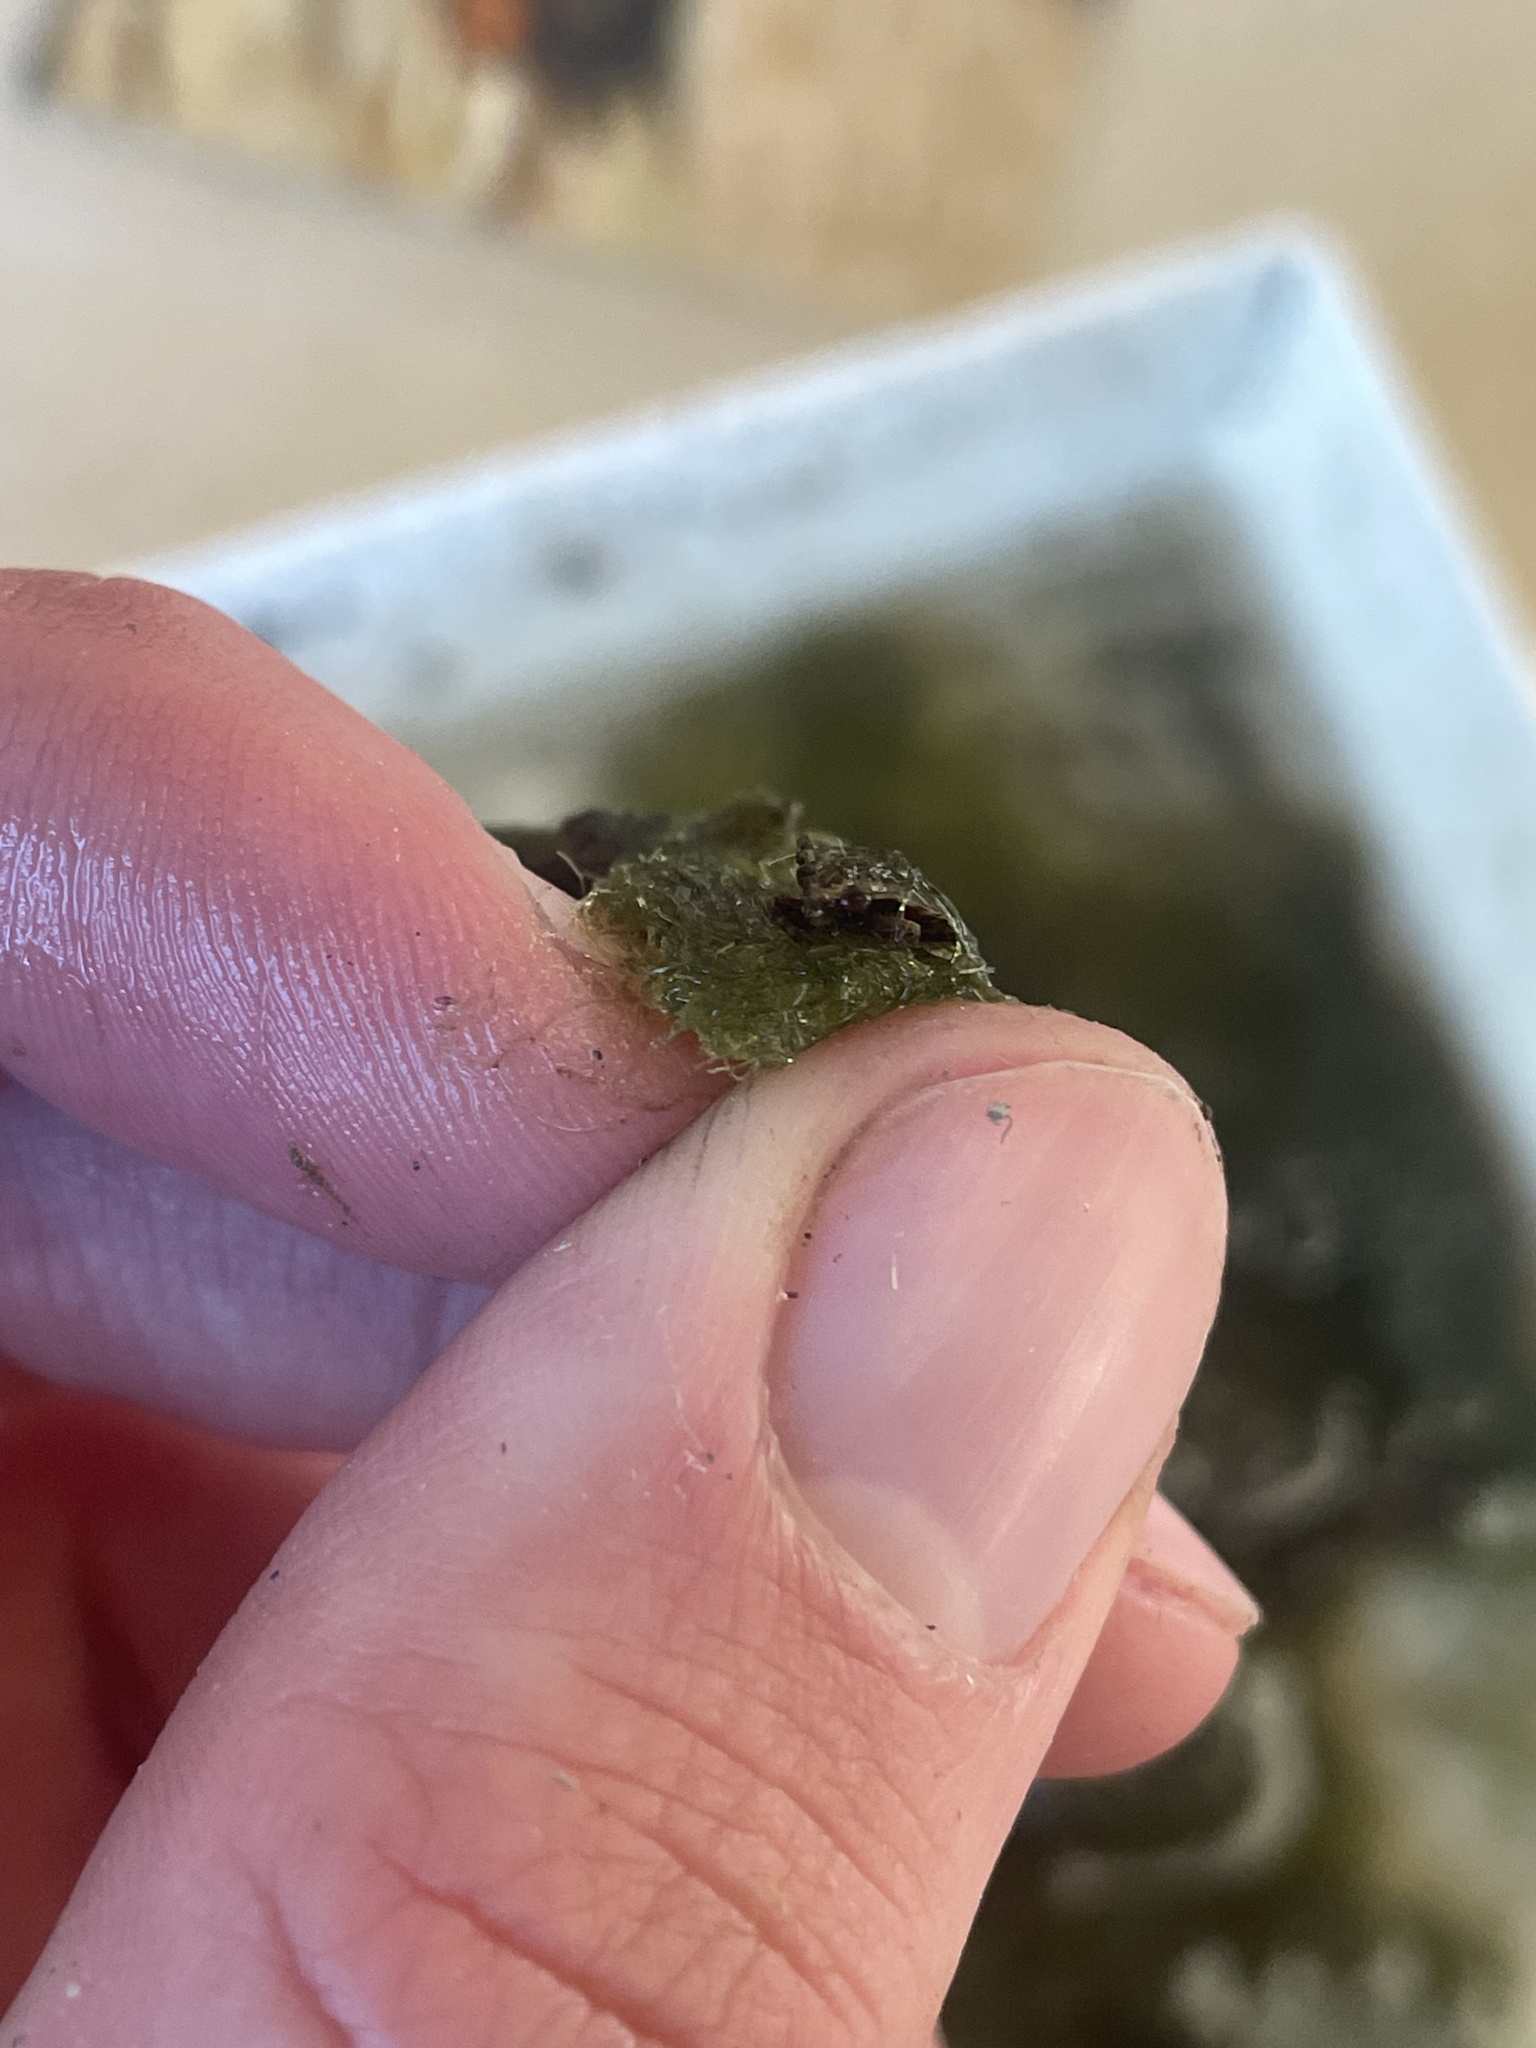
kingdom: Animalia
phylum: Arthropoda
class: Insecta
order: Hemiptera
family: Belostomatidae
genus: Belostoma
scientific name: Belostoma
